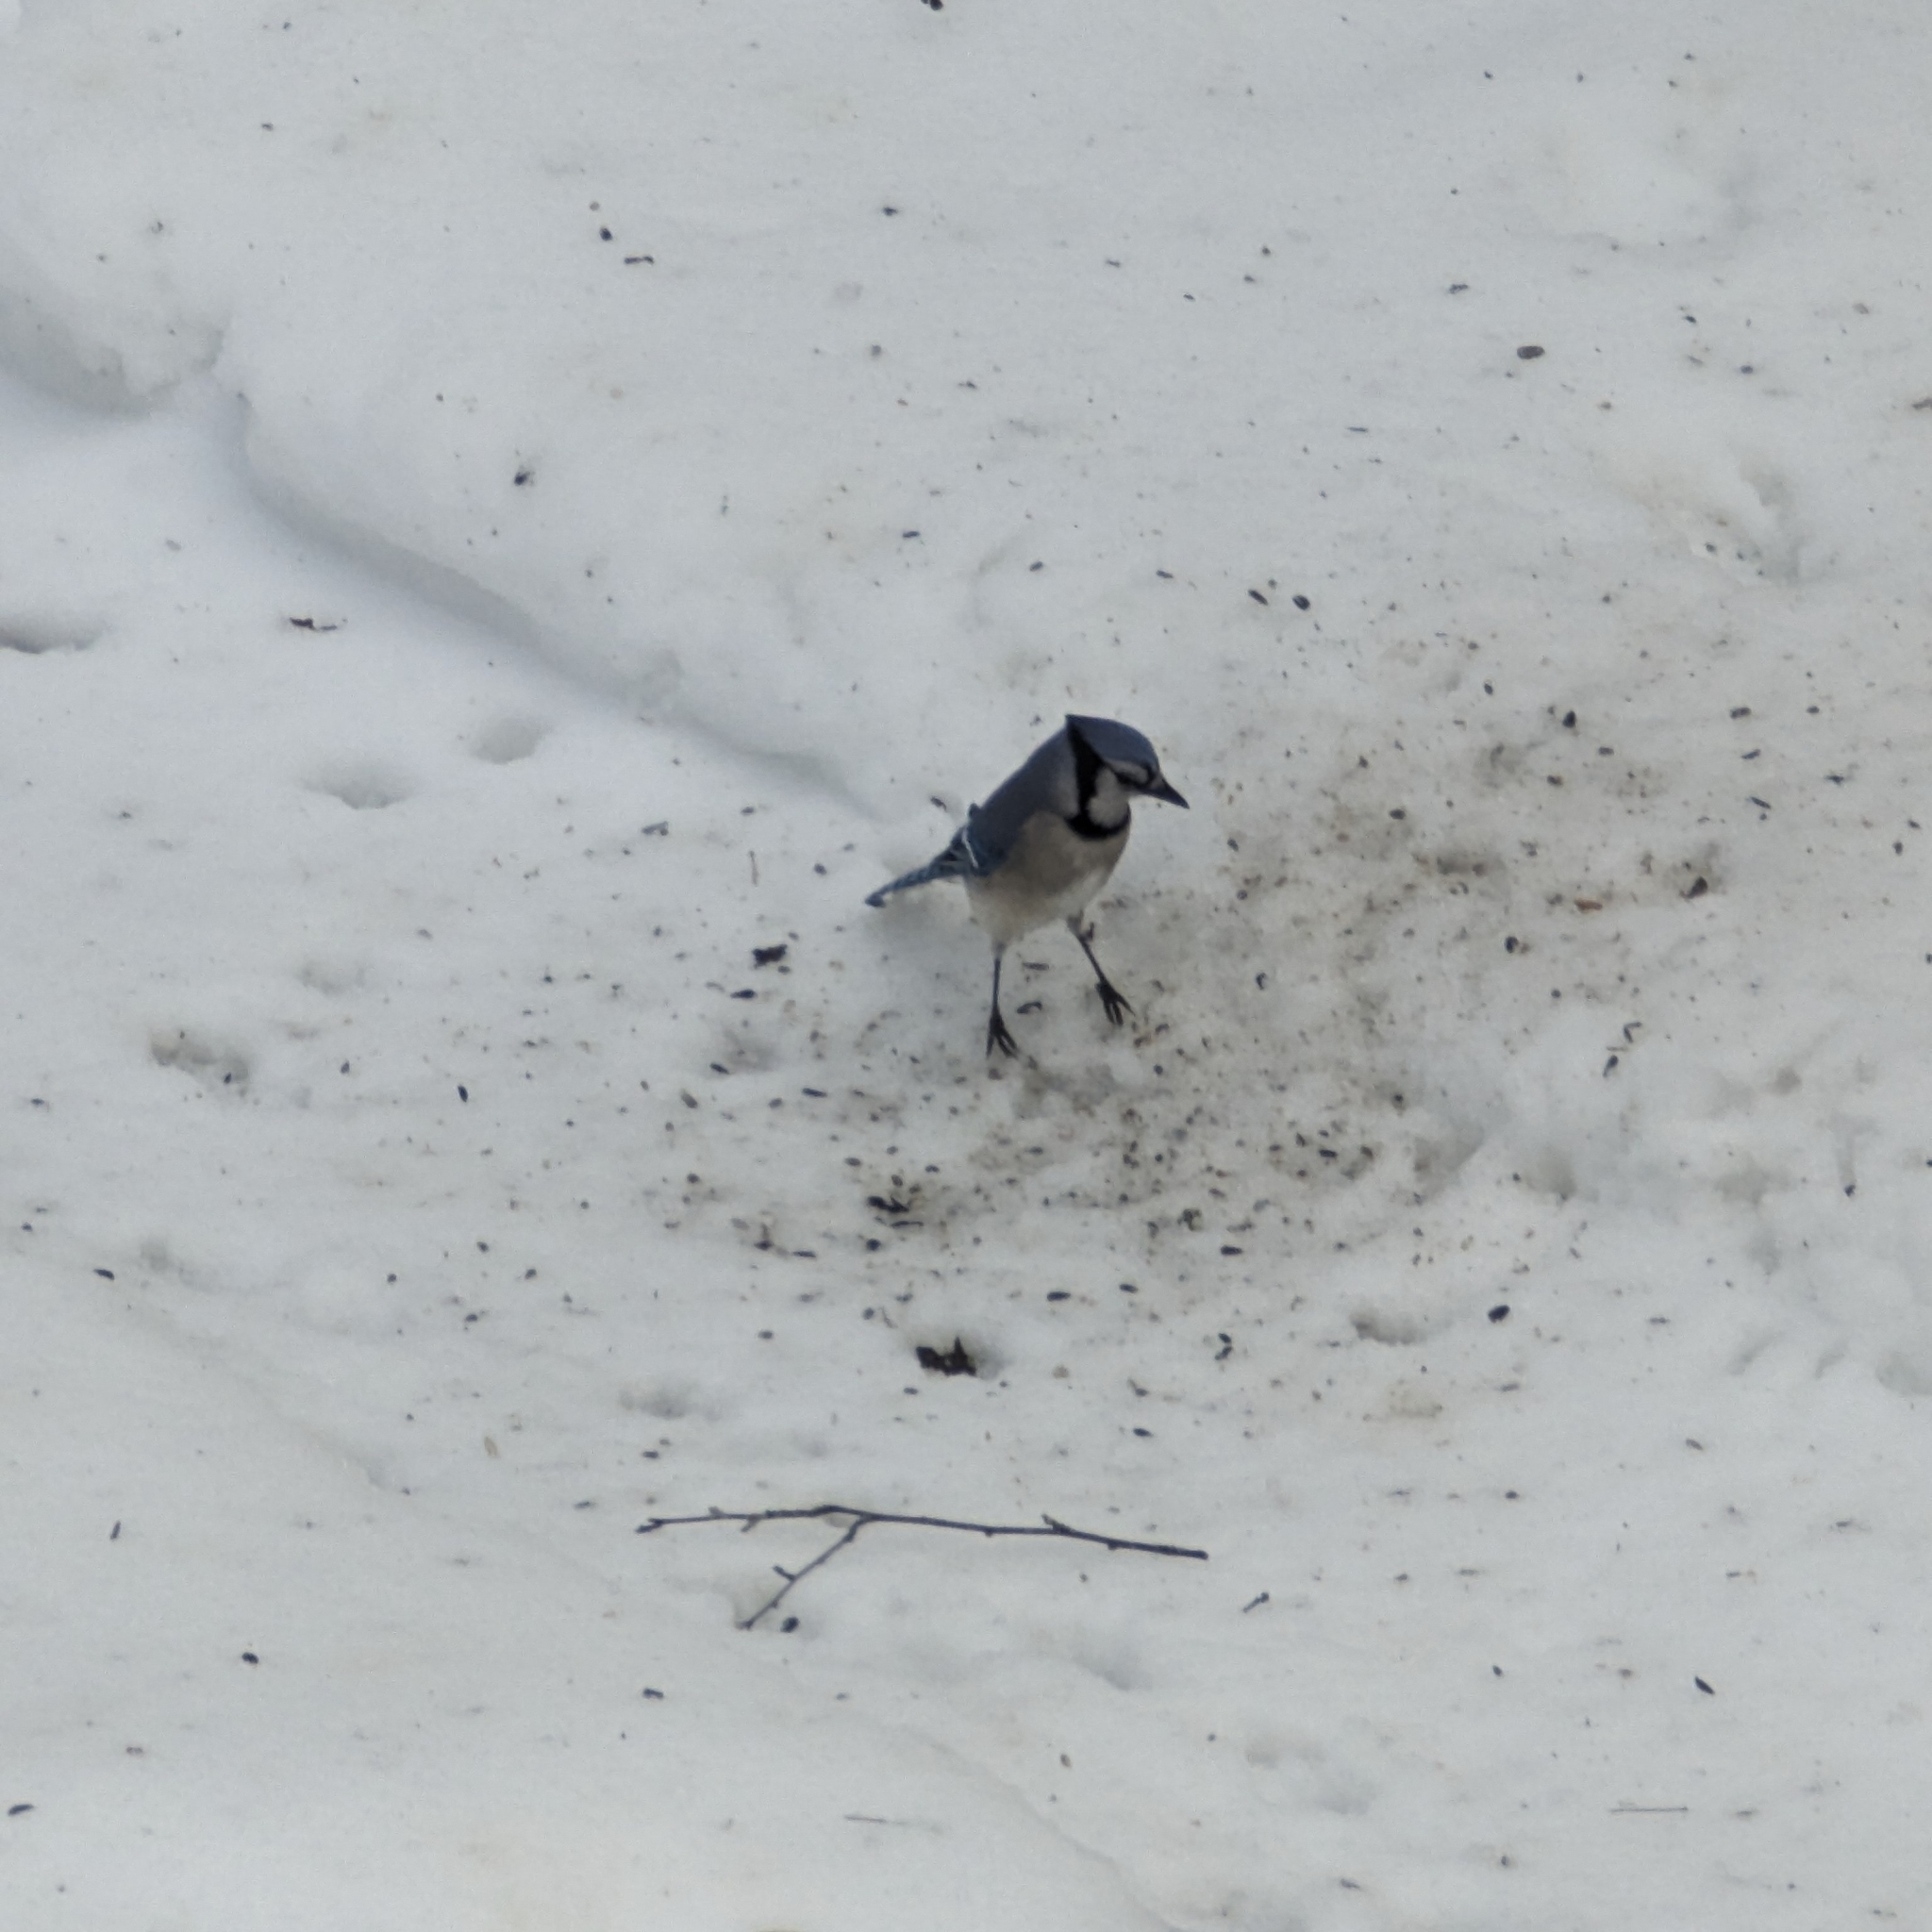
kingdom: Animalia
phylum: Chordata
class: Aves
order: Passeriformes
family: Corvidae
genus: Cyanocitta
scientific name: Cyanocitta cristata
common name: Blue jay
